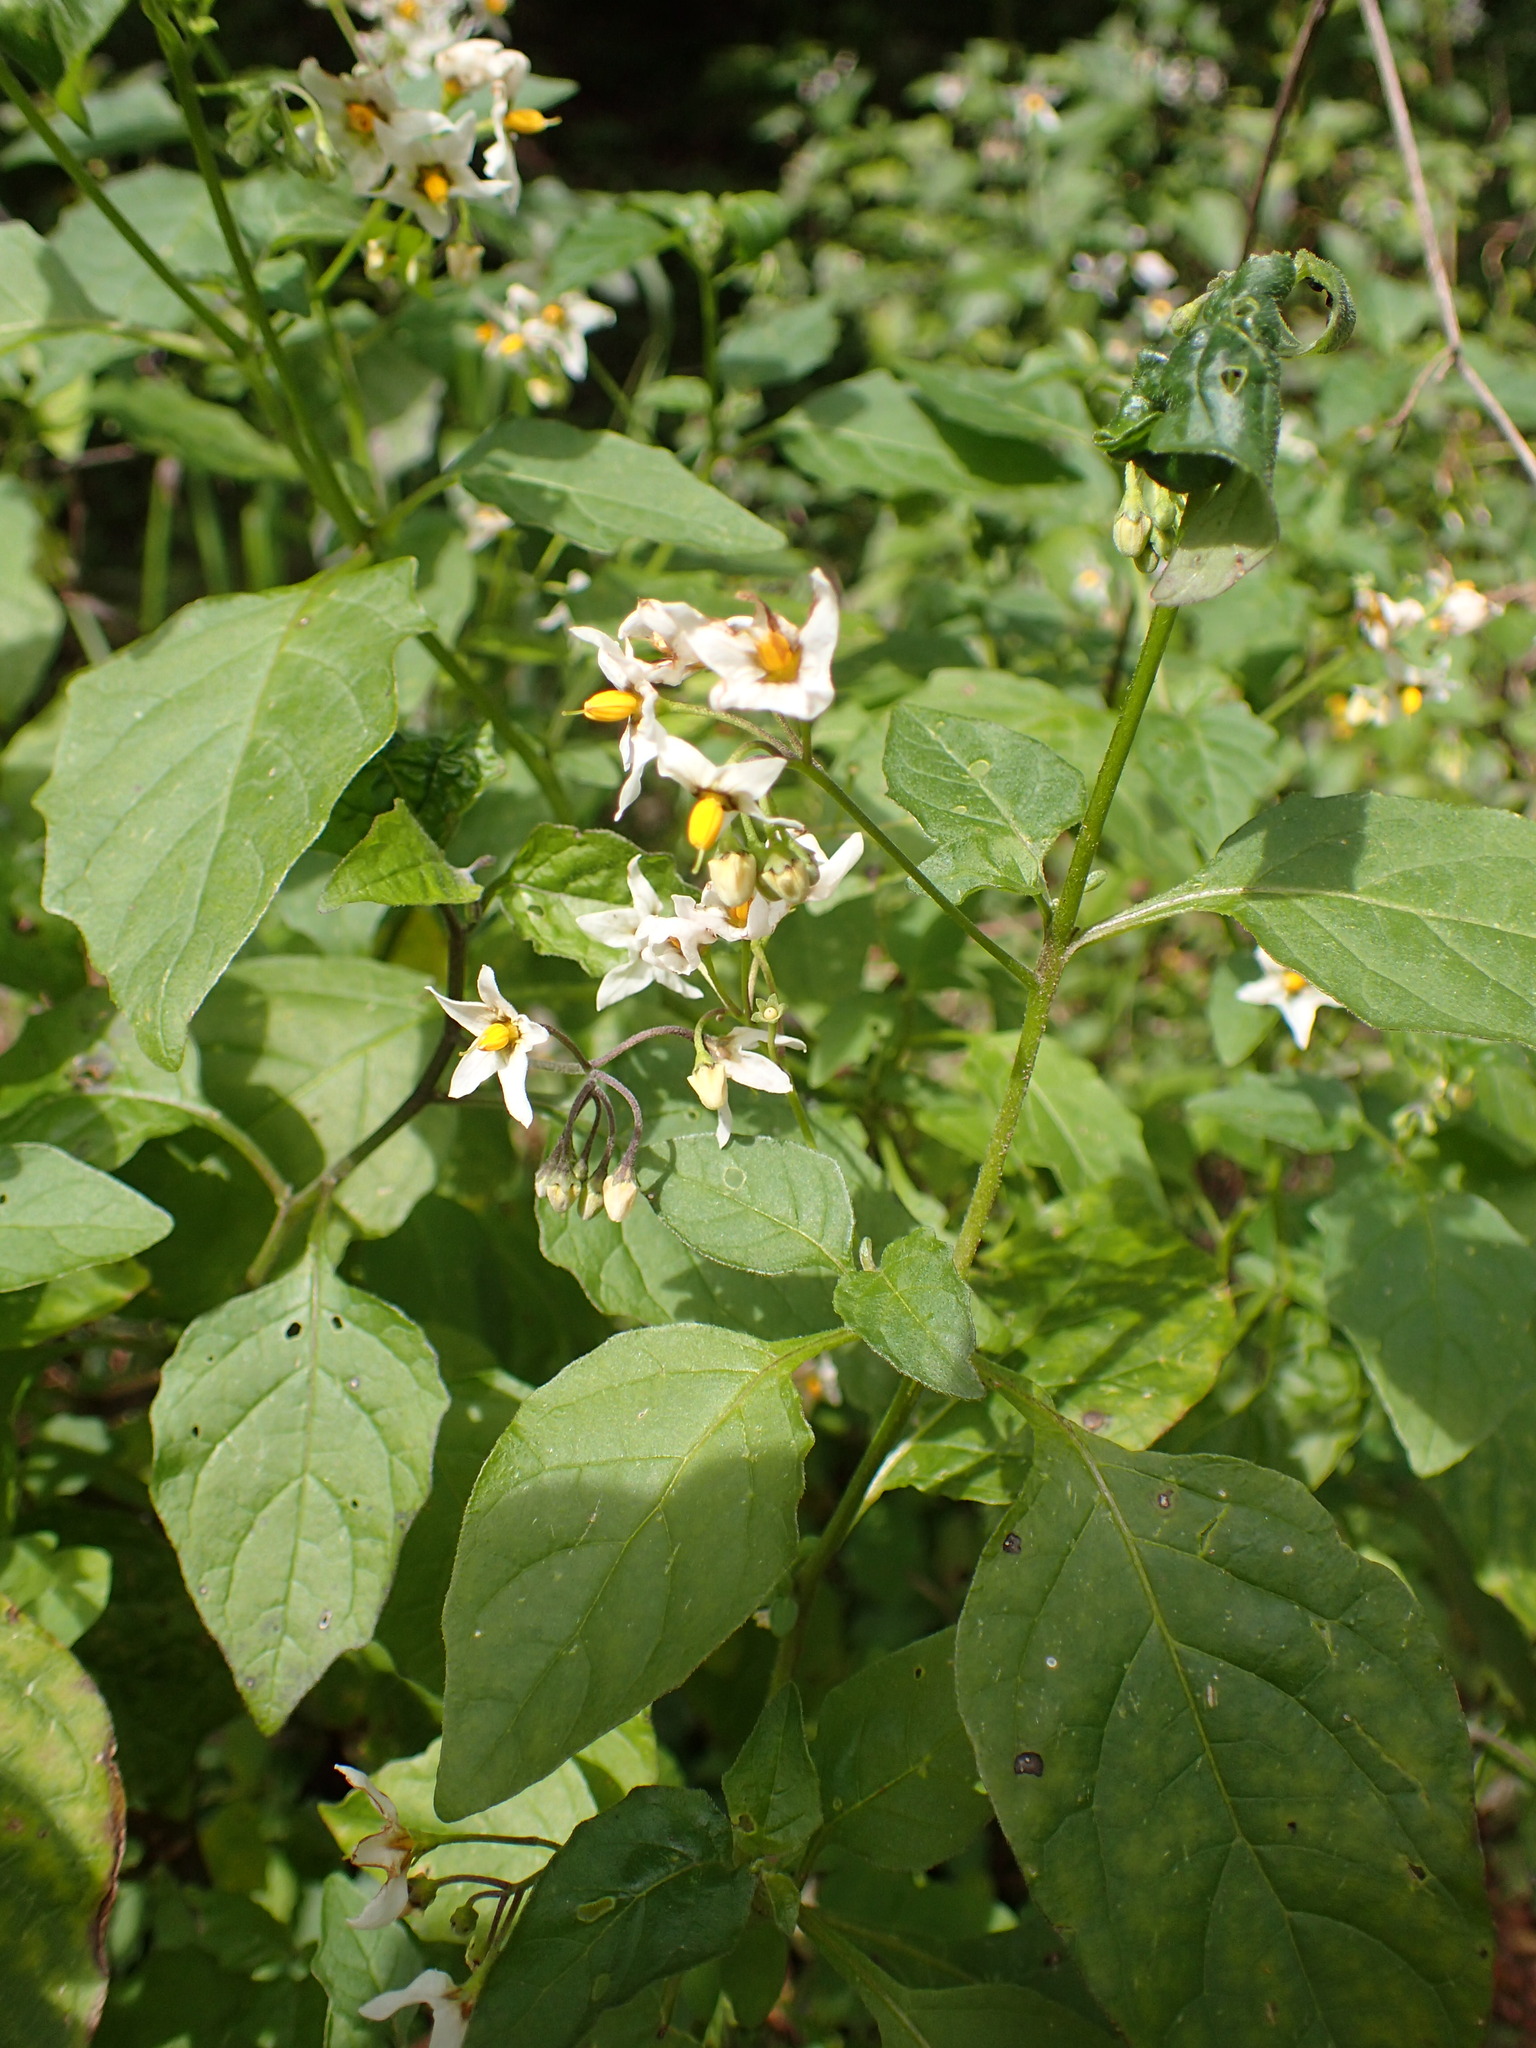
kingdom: Plantae
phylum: Tracheophyta
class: Magnoliopsida
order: Solanales
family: Solanaceae
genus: Solanum
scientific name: Solanum douglasii
